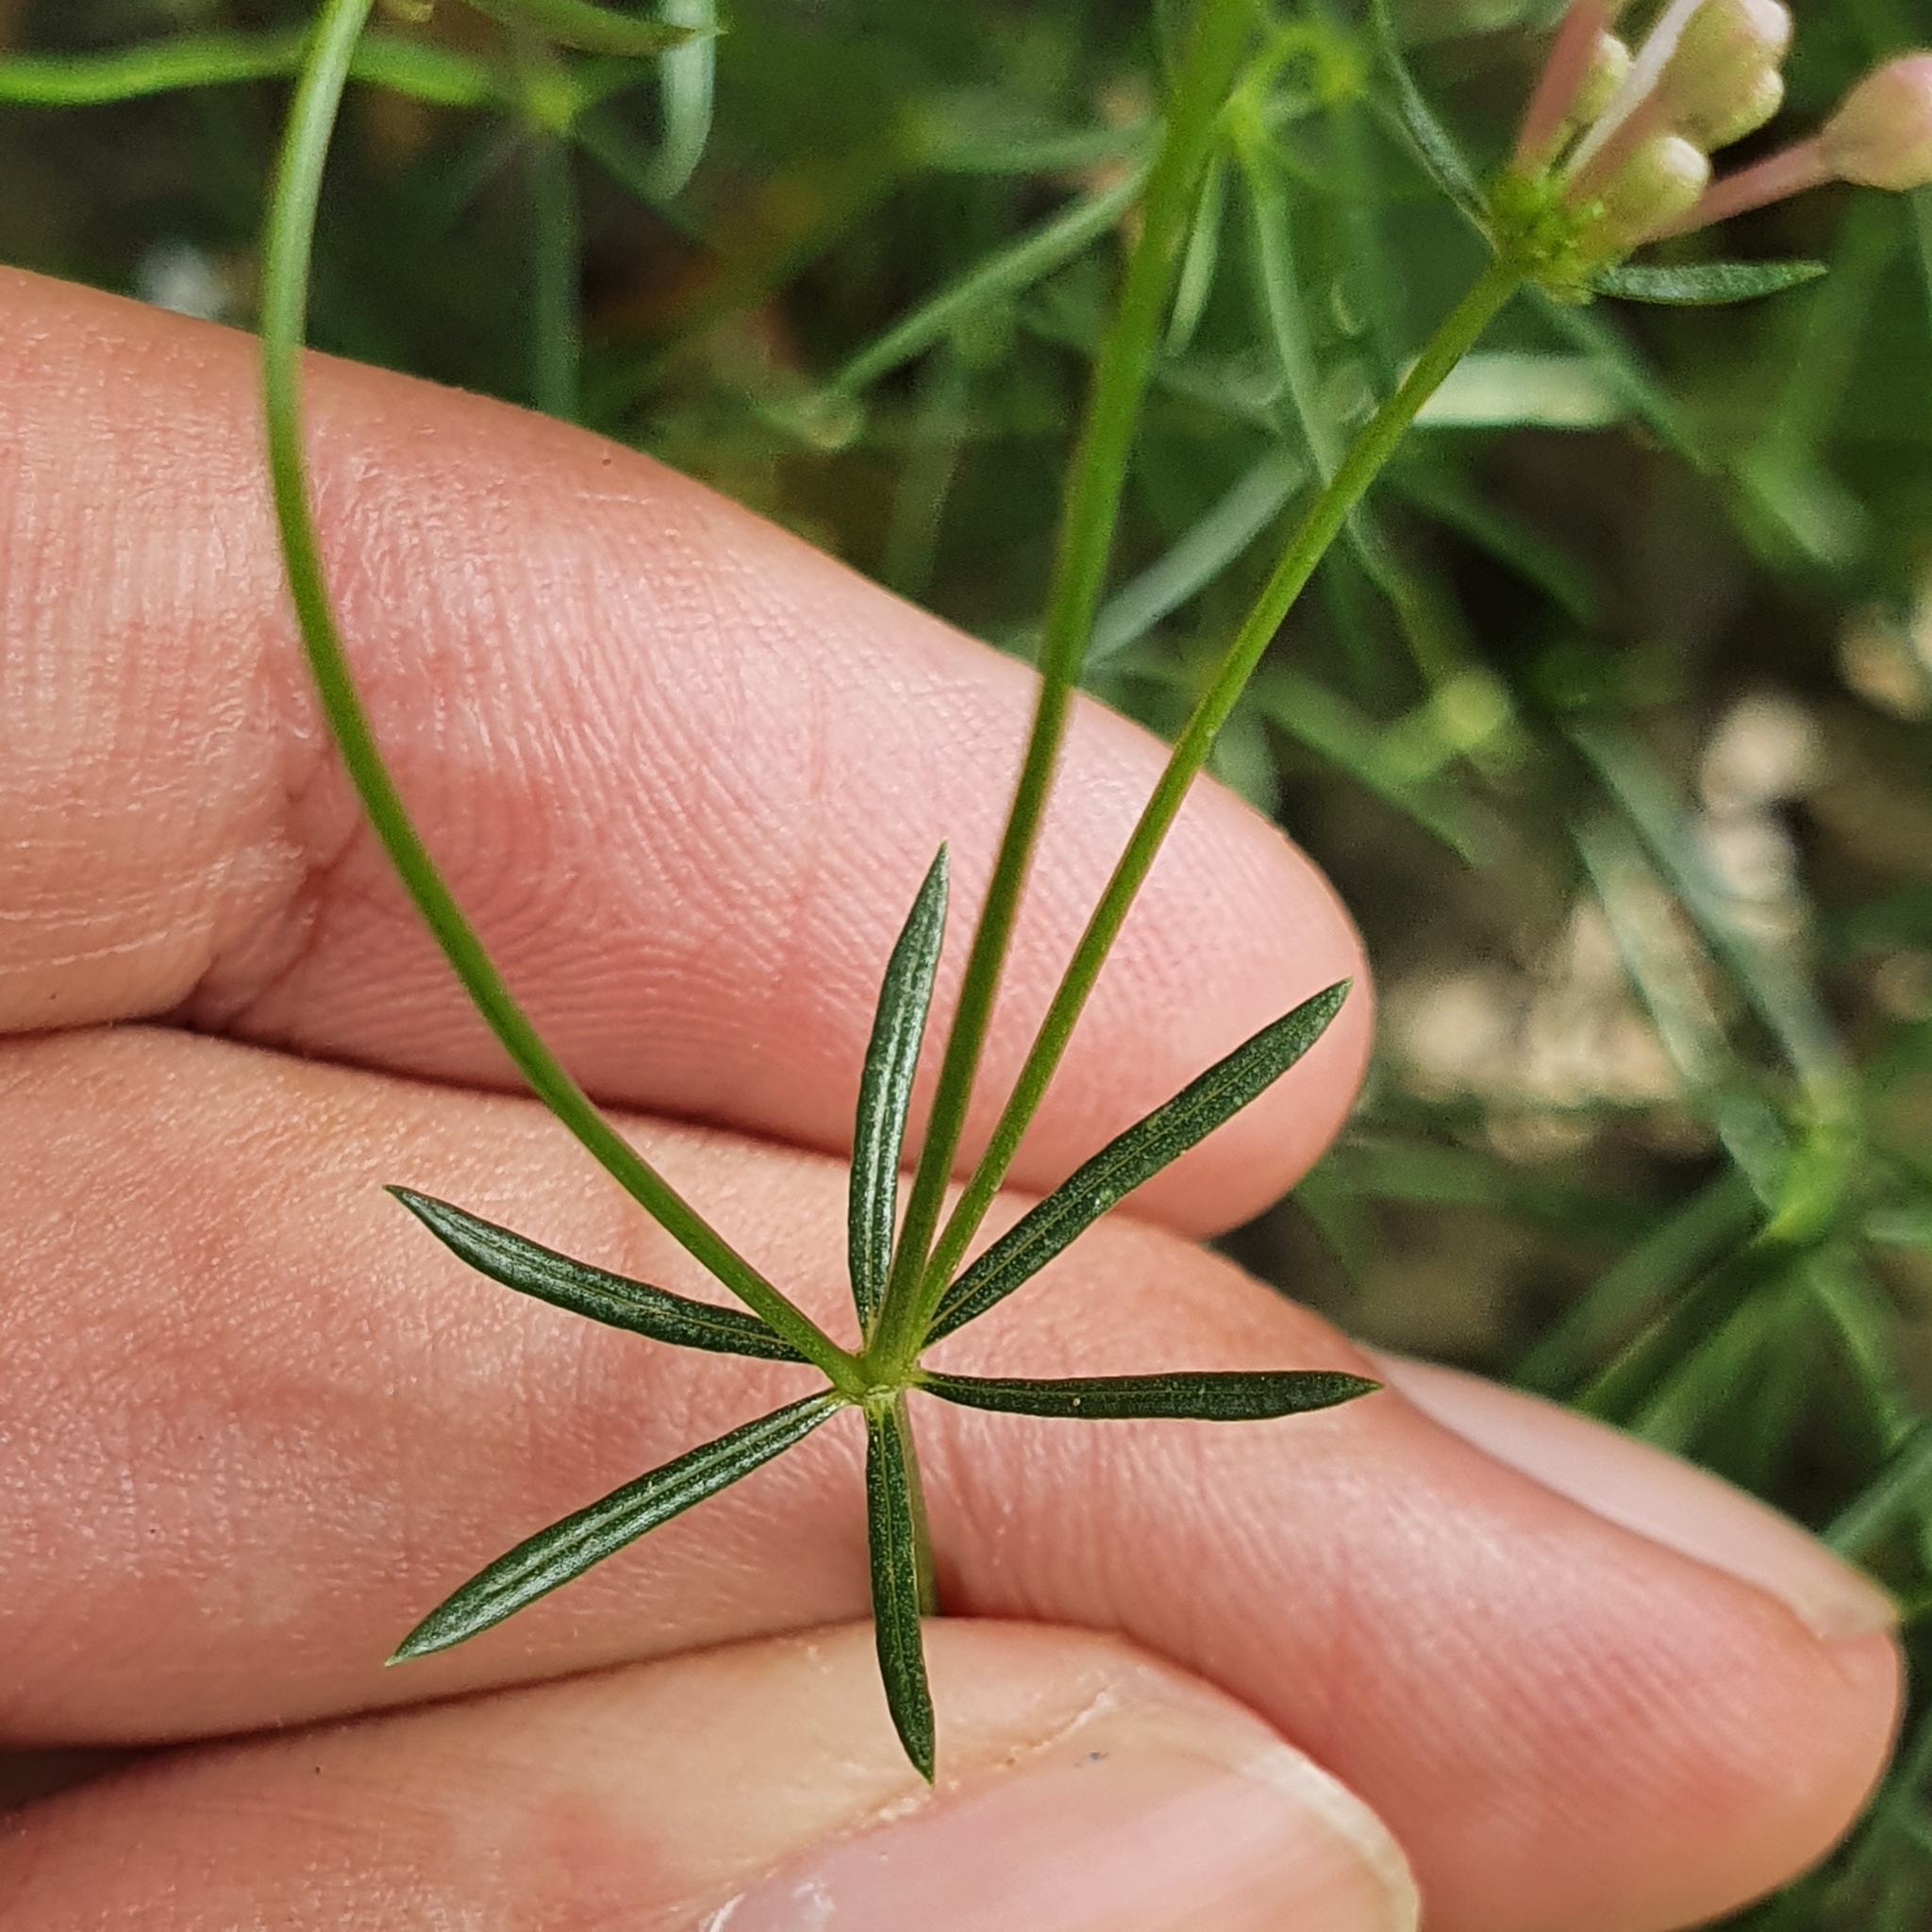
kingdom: Plantae
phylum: Tracheophyta
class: Magnoliopsida
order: Gentianales
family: Rubiaceae
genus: Hexaphylla
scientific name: Hexaphylla hirsuta
